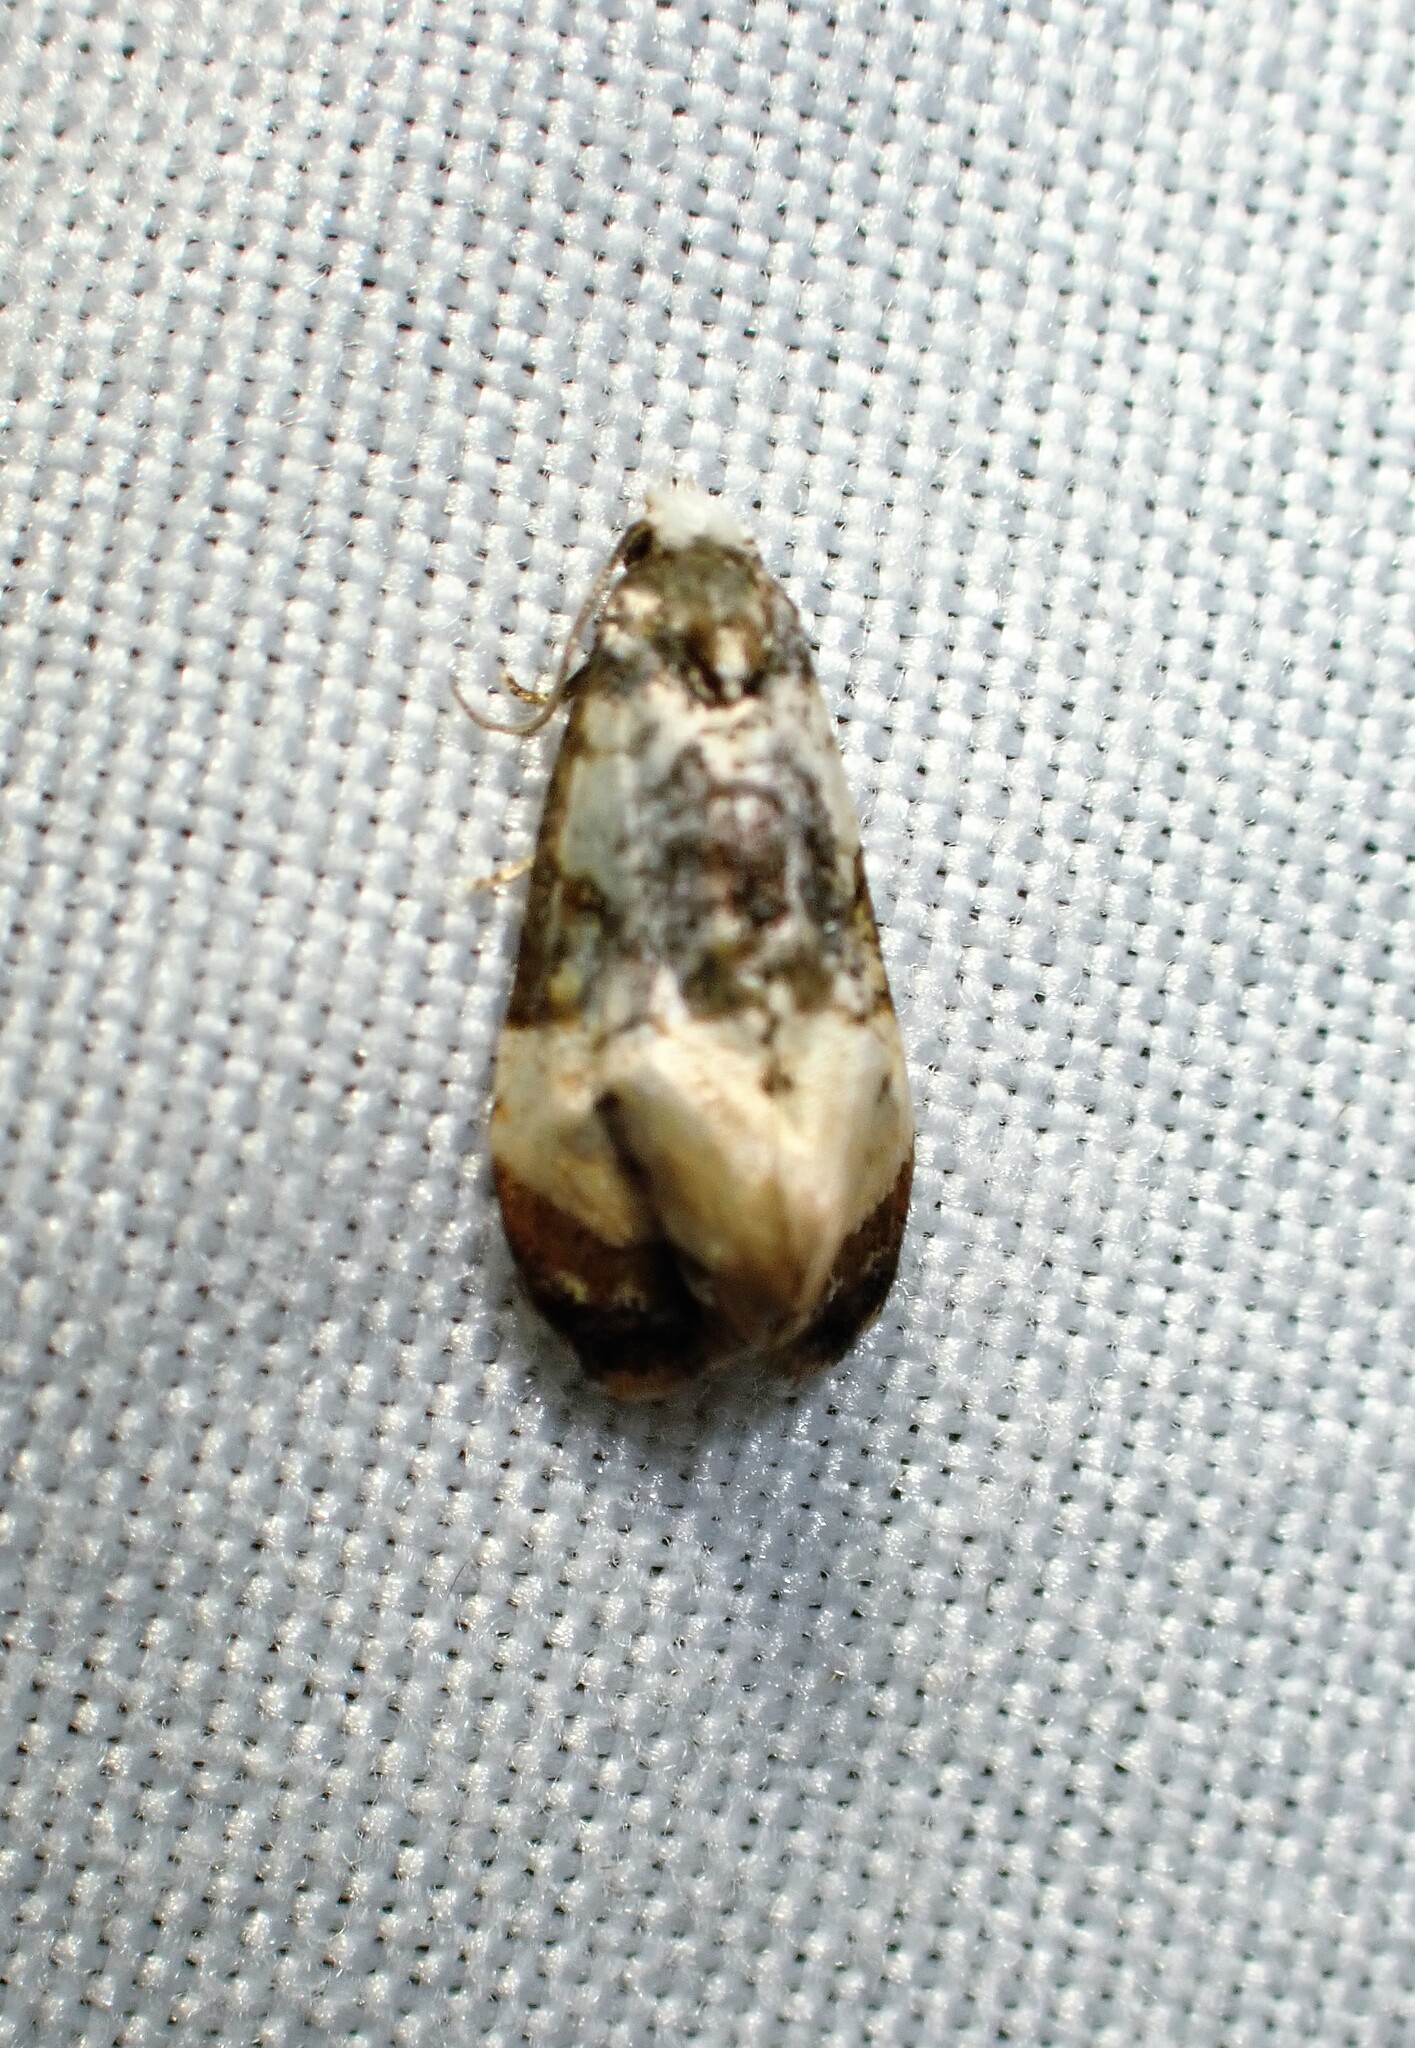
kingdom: Animalia
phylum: Arthropoda
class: Insecta
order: Lepidoptera
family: Tortricidae
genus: Phalonidia
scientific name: Phalonidia memoranda
